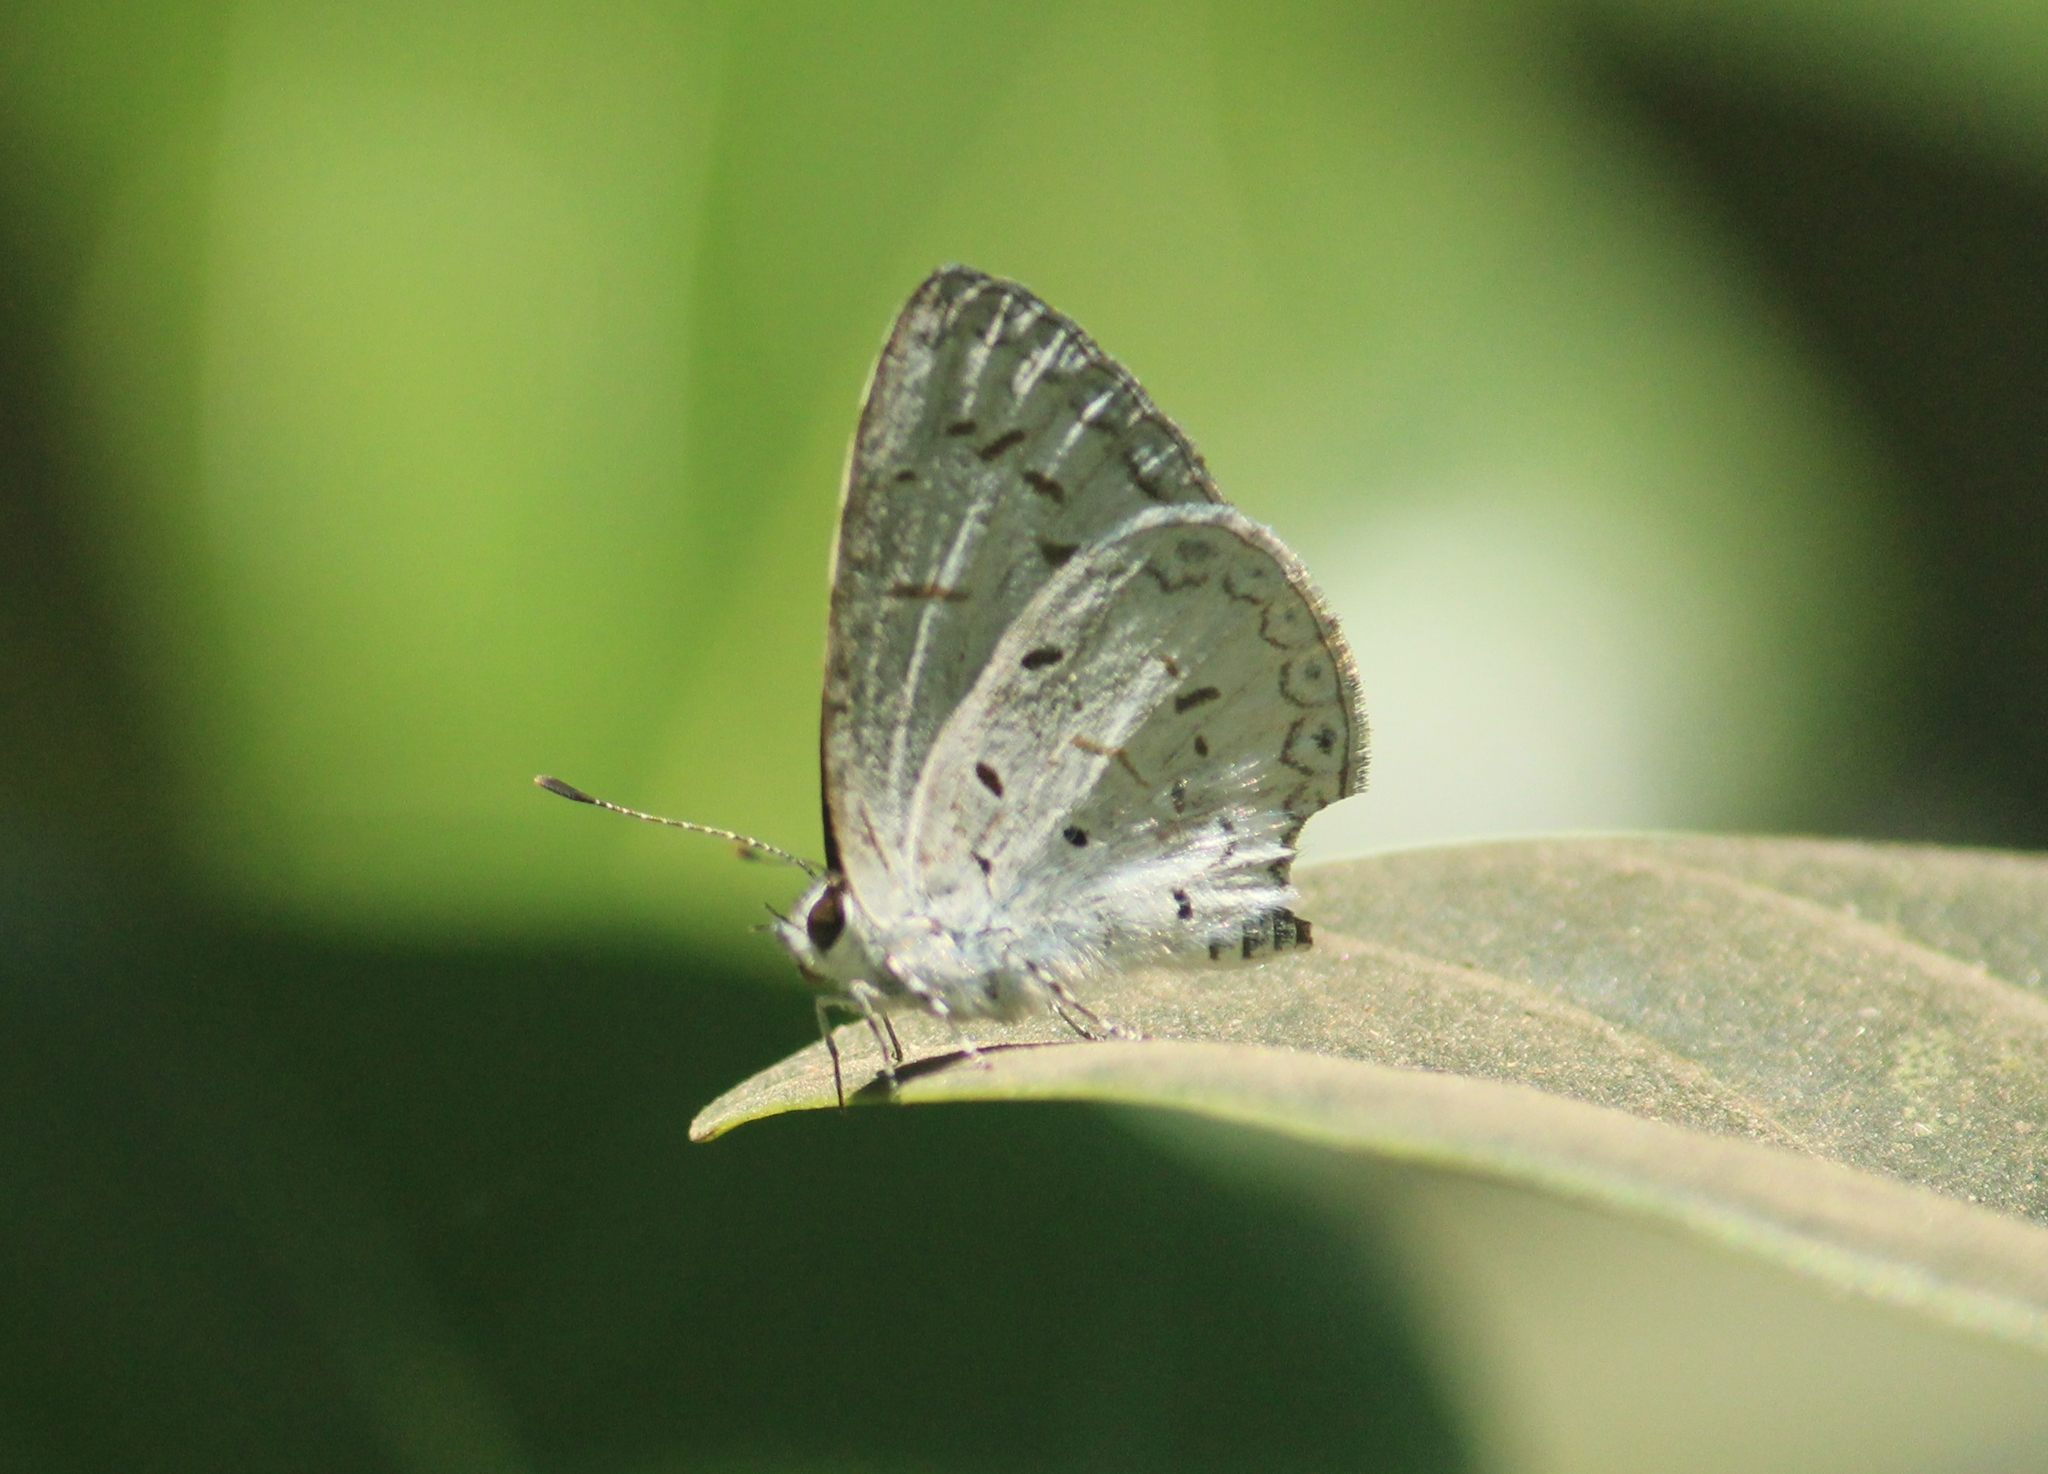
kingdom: Animalia
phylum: Arthropoda
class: Insecta
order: Lepidoptera
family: Lycaenidae
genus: Acytolepis
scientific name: Acytolepis puspa
